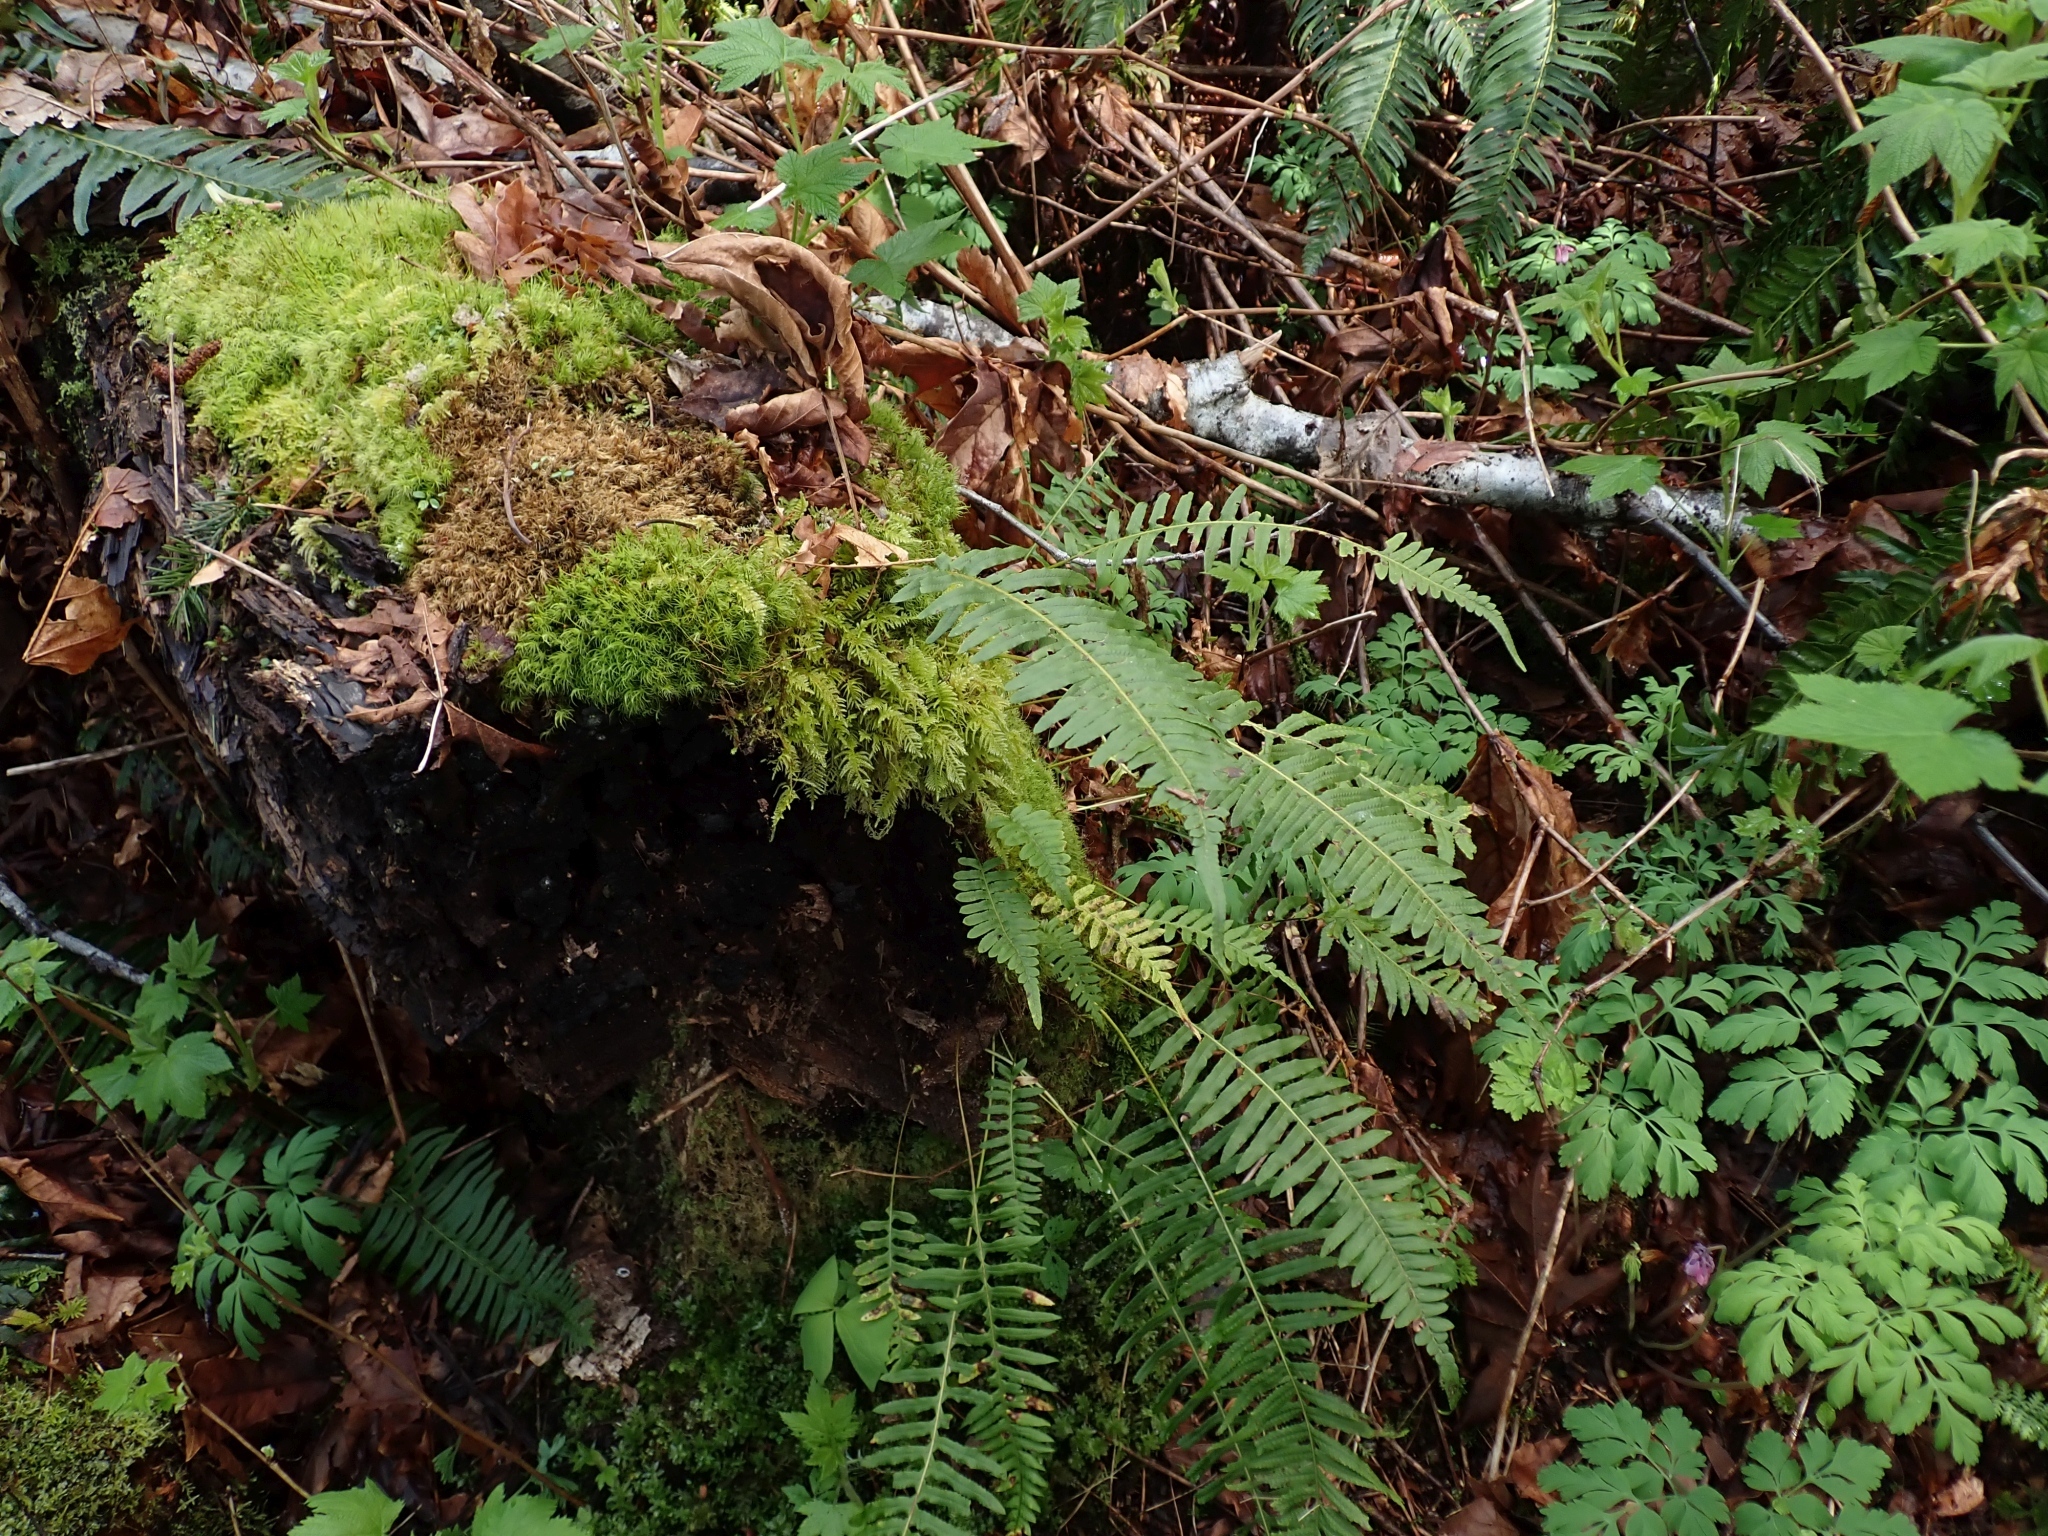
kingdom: Plantae
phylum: Tracheophyta
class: Polypodiopsida
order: Polypodiales
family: Polypodiaceae
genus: Polypodium
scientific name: Polypodium glycyrrhiza
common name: Licorice fern
